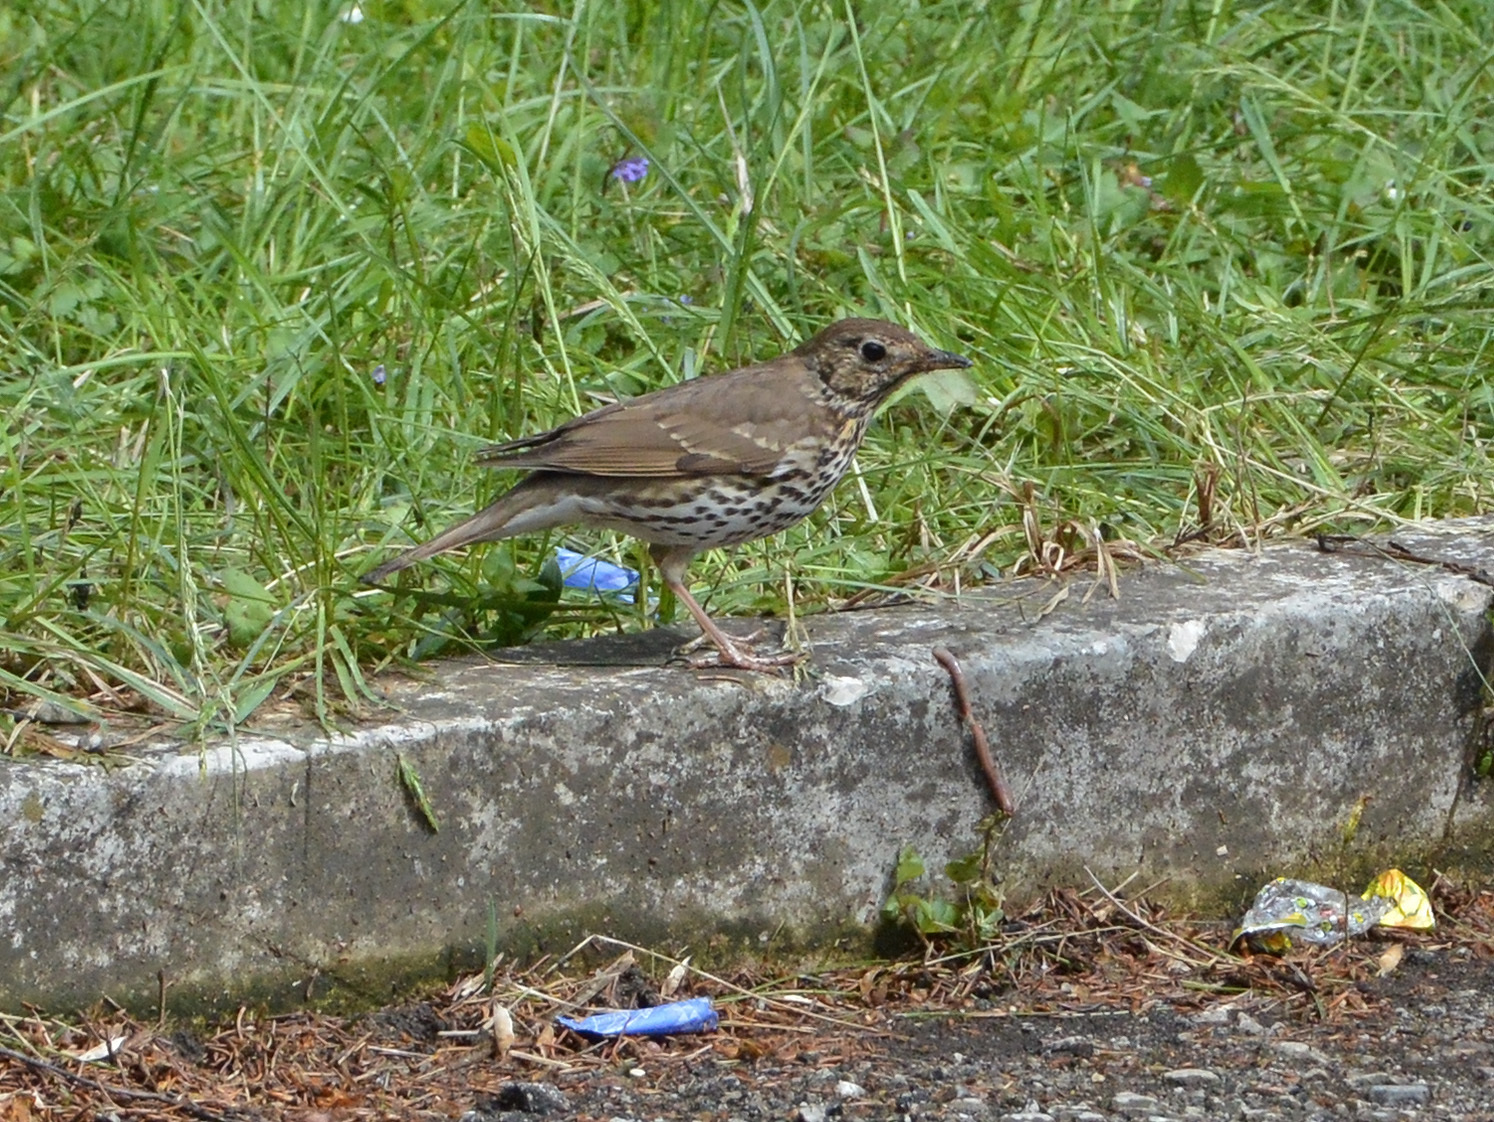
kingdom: Animalia
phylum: Chordata
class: Aves
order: Passeriformes
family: Turdidae
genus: Turdus
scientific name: Turdus philomelos
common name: Song thrush
